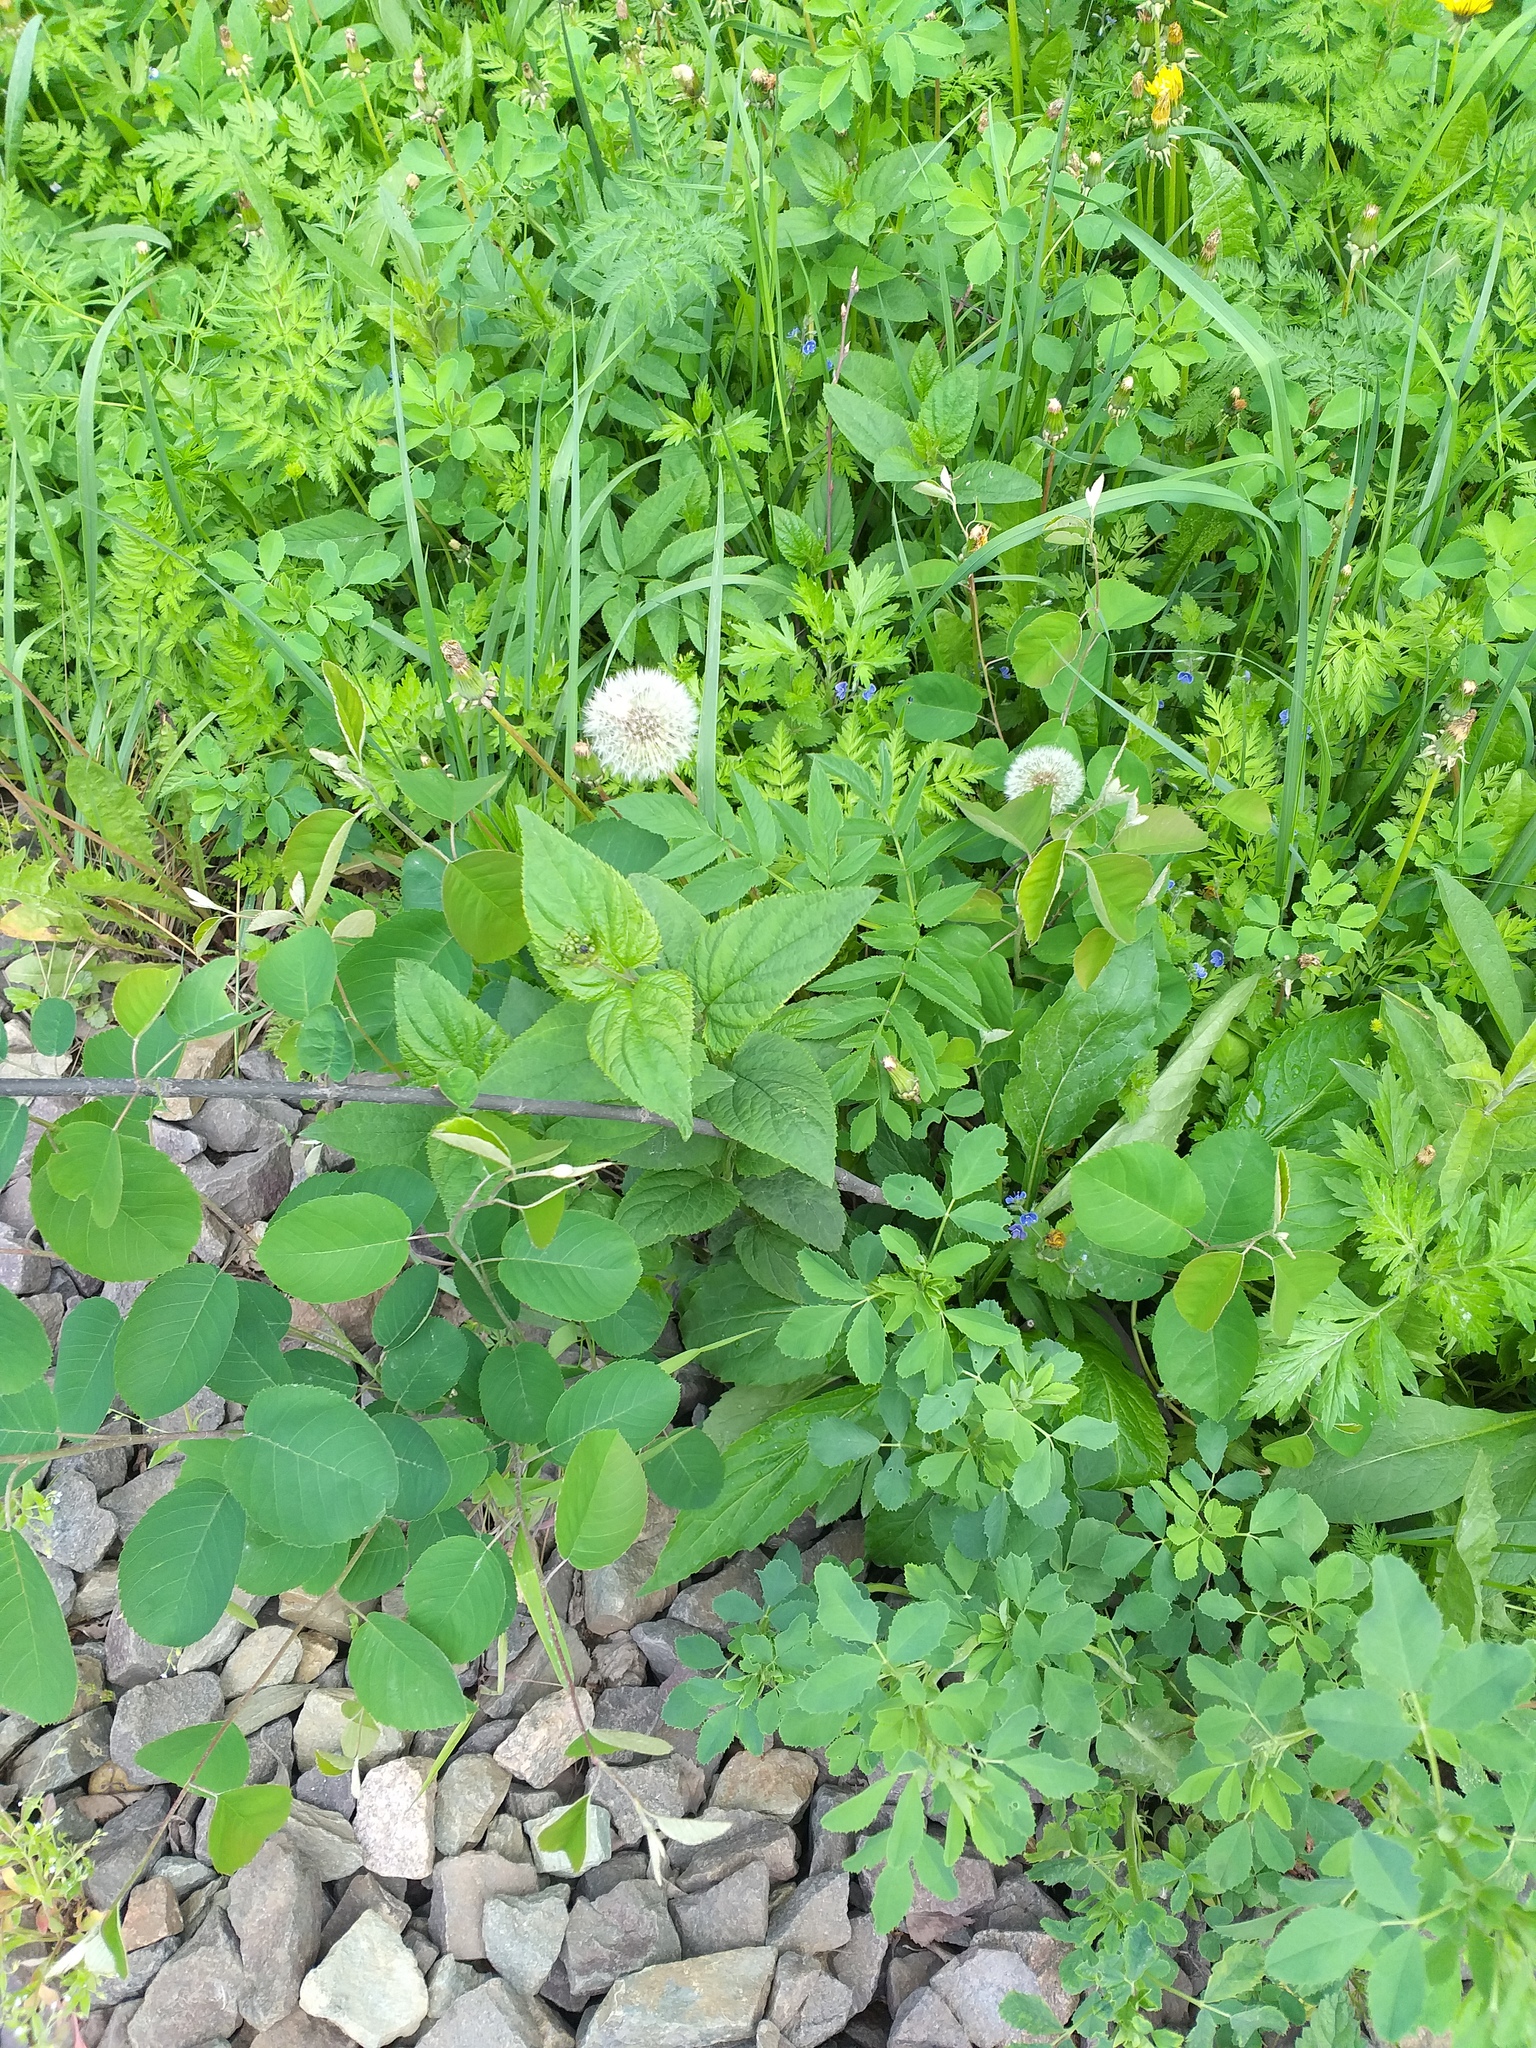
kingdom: Plantae
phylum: Tracheophyta
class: Magnoliopsida
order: Lamiales
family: Scrophulariaceae
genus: Scrophularia
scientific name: Scrophularia nodosa
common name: Common figwort
